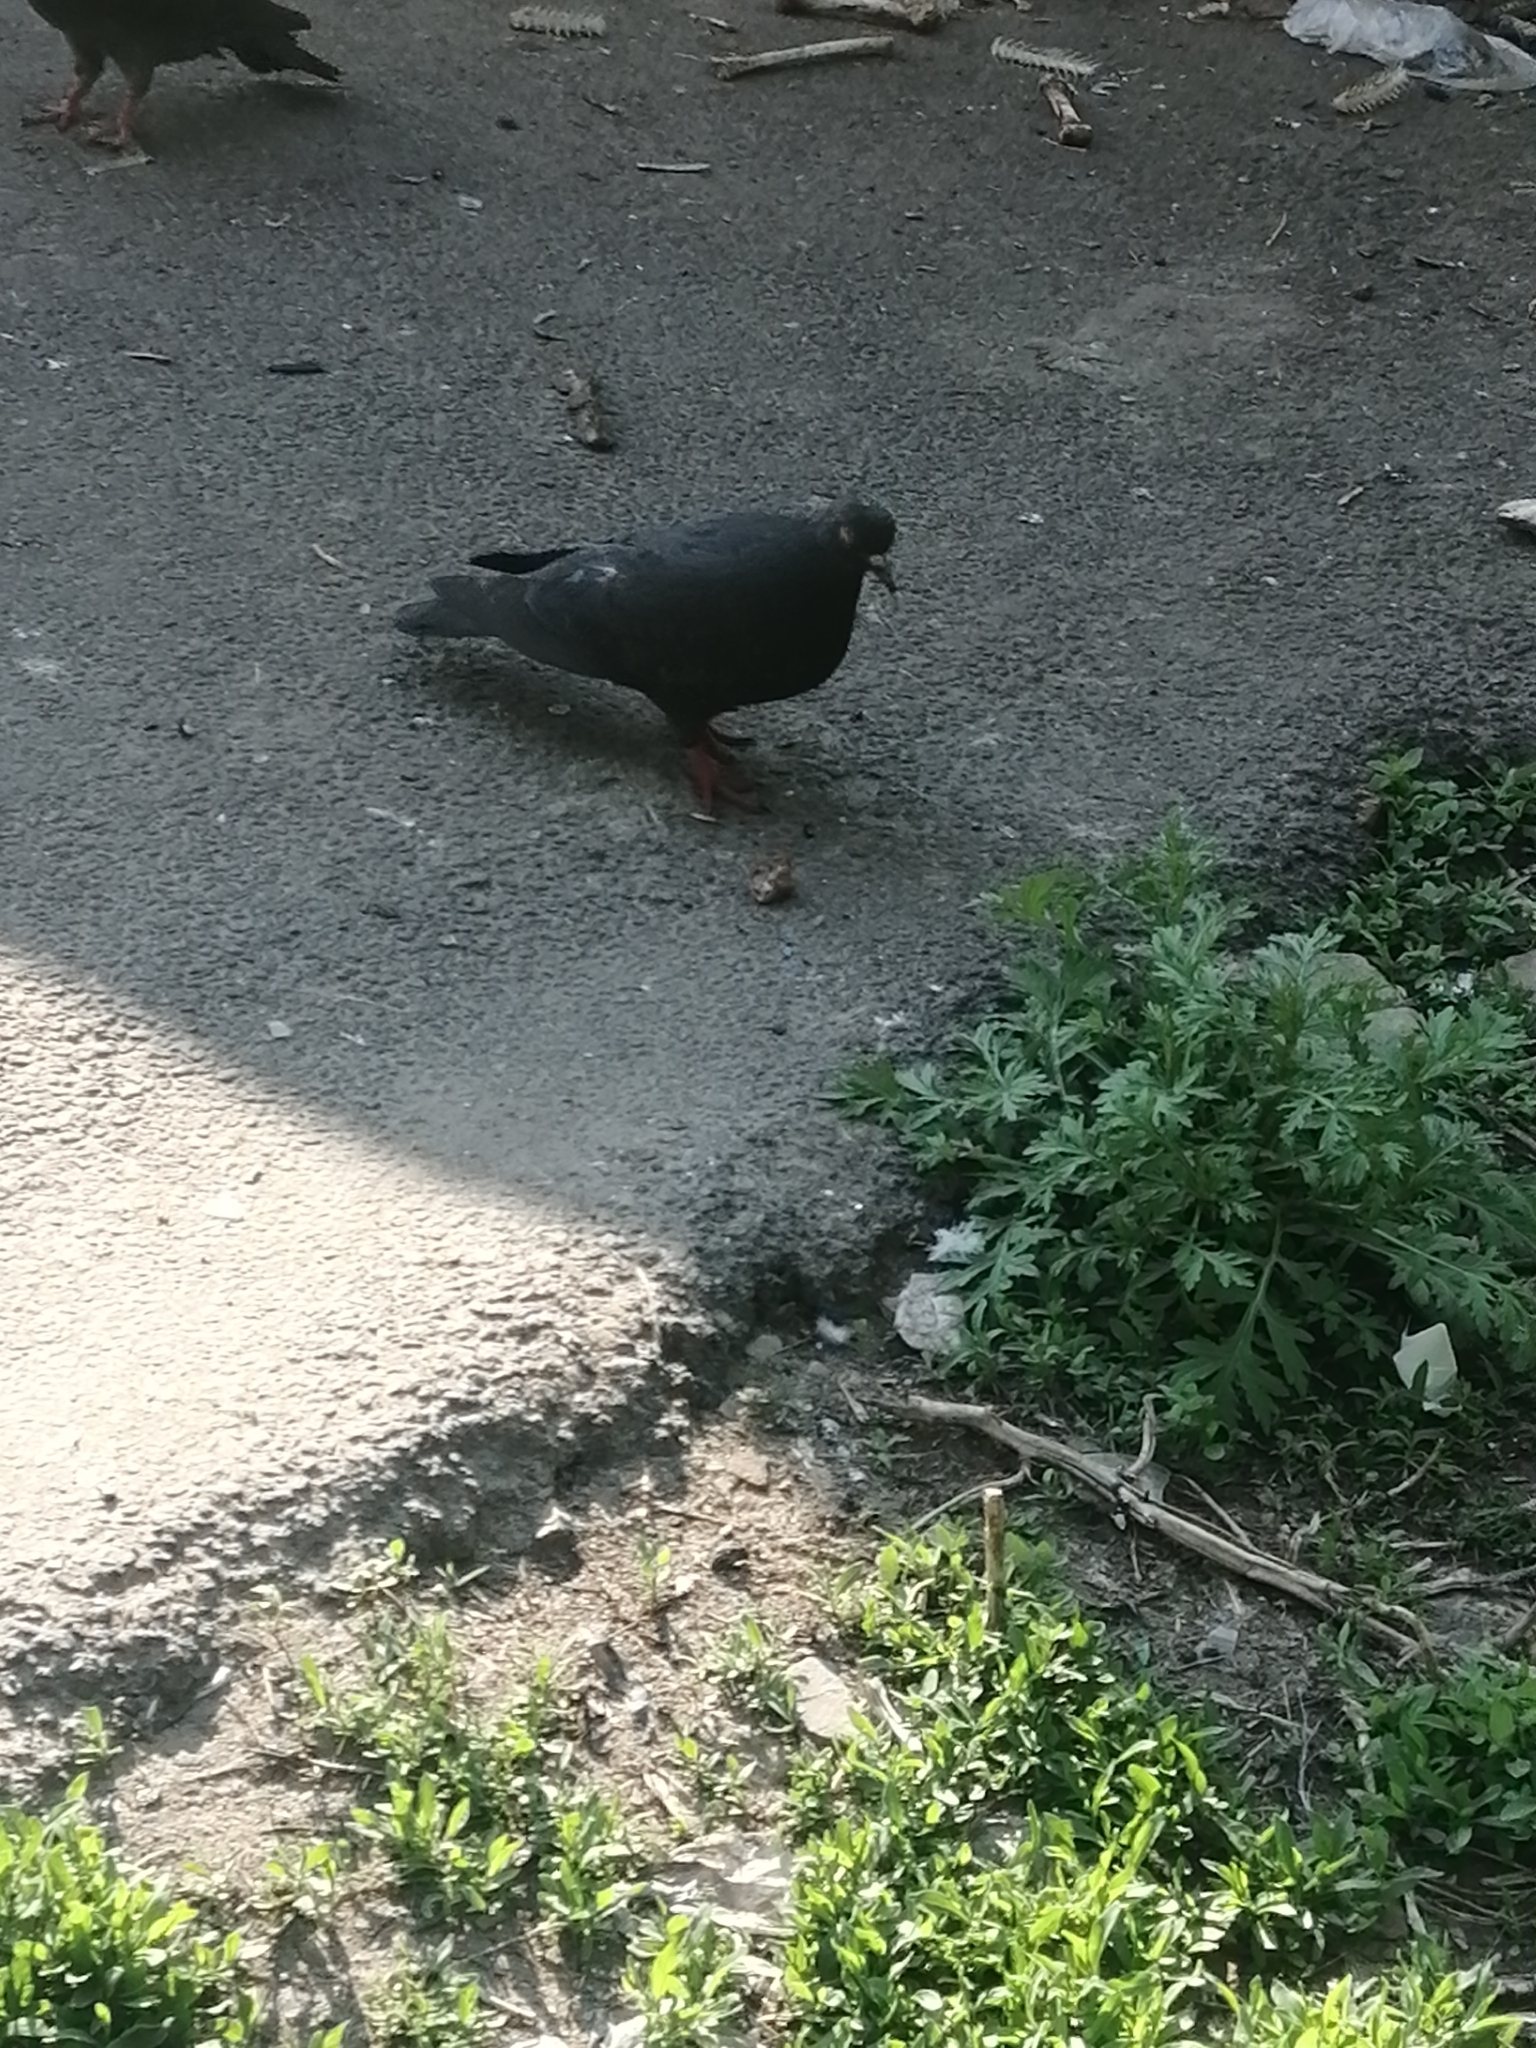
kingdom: Animalia
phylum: Chordata
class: Aves
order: Columbiformes
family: Columbidae
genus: Columba
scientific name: Columba livia
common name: Rock pigeon
